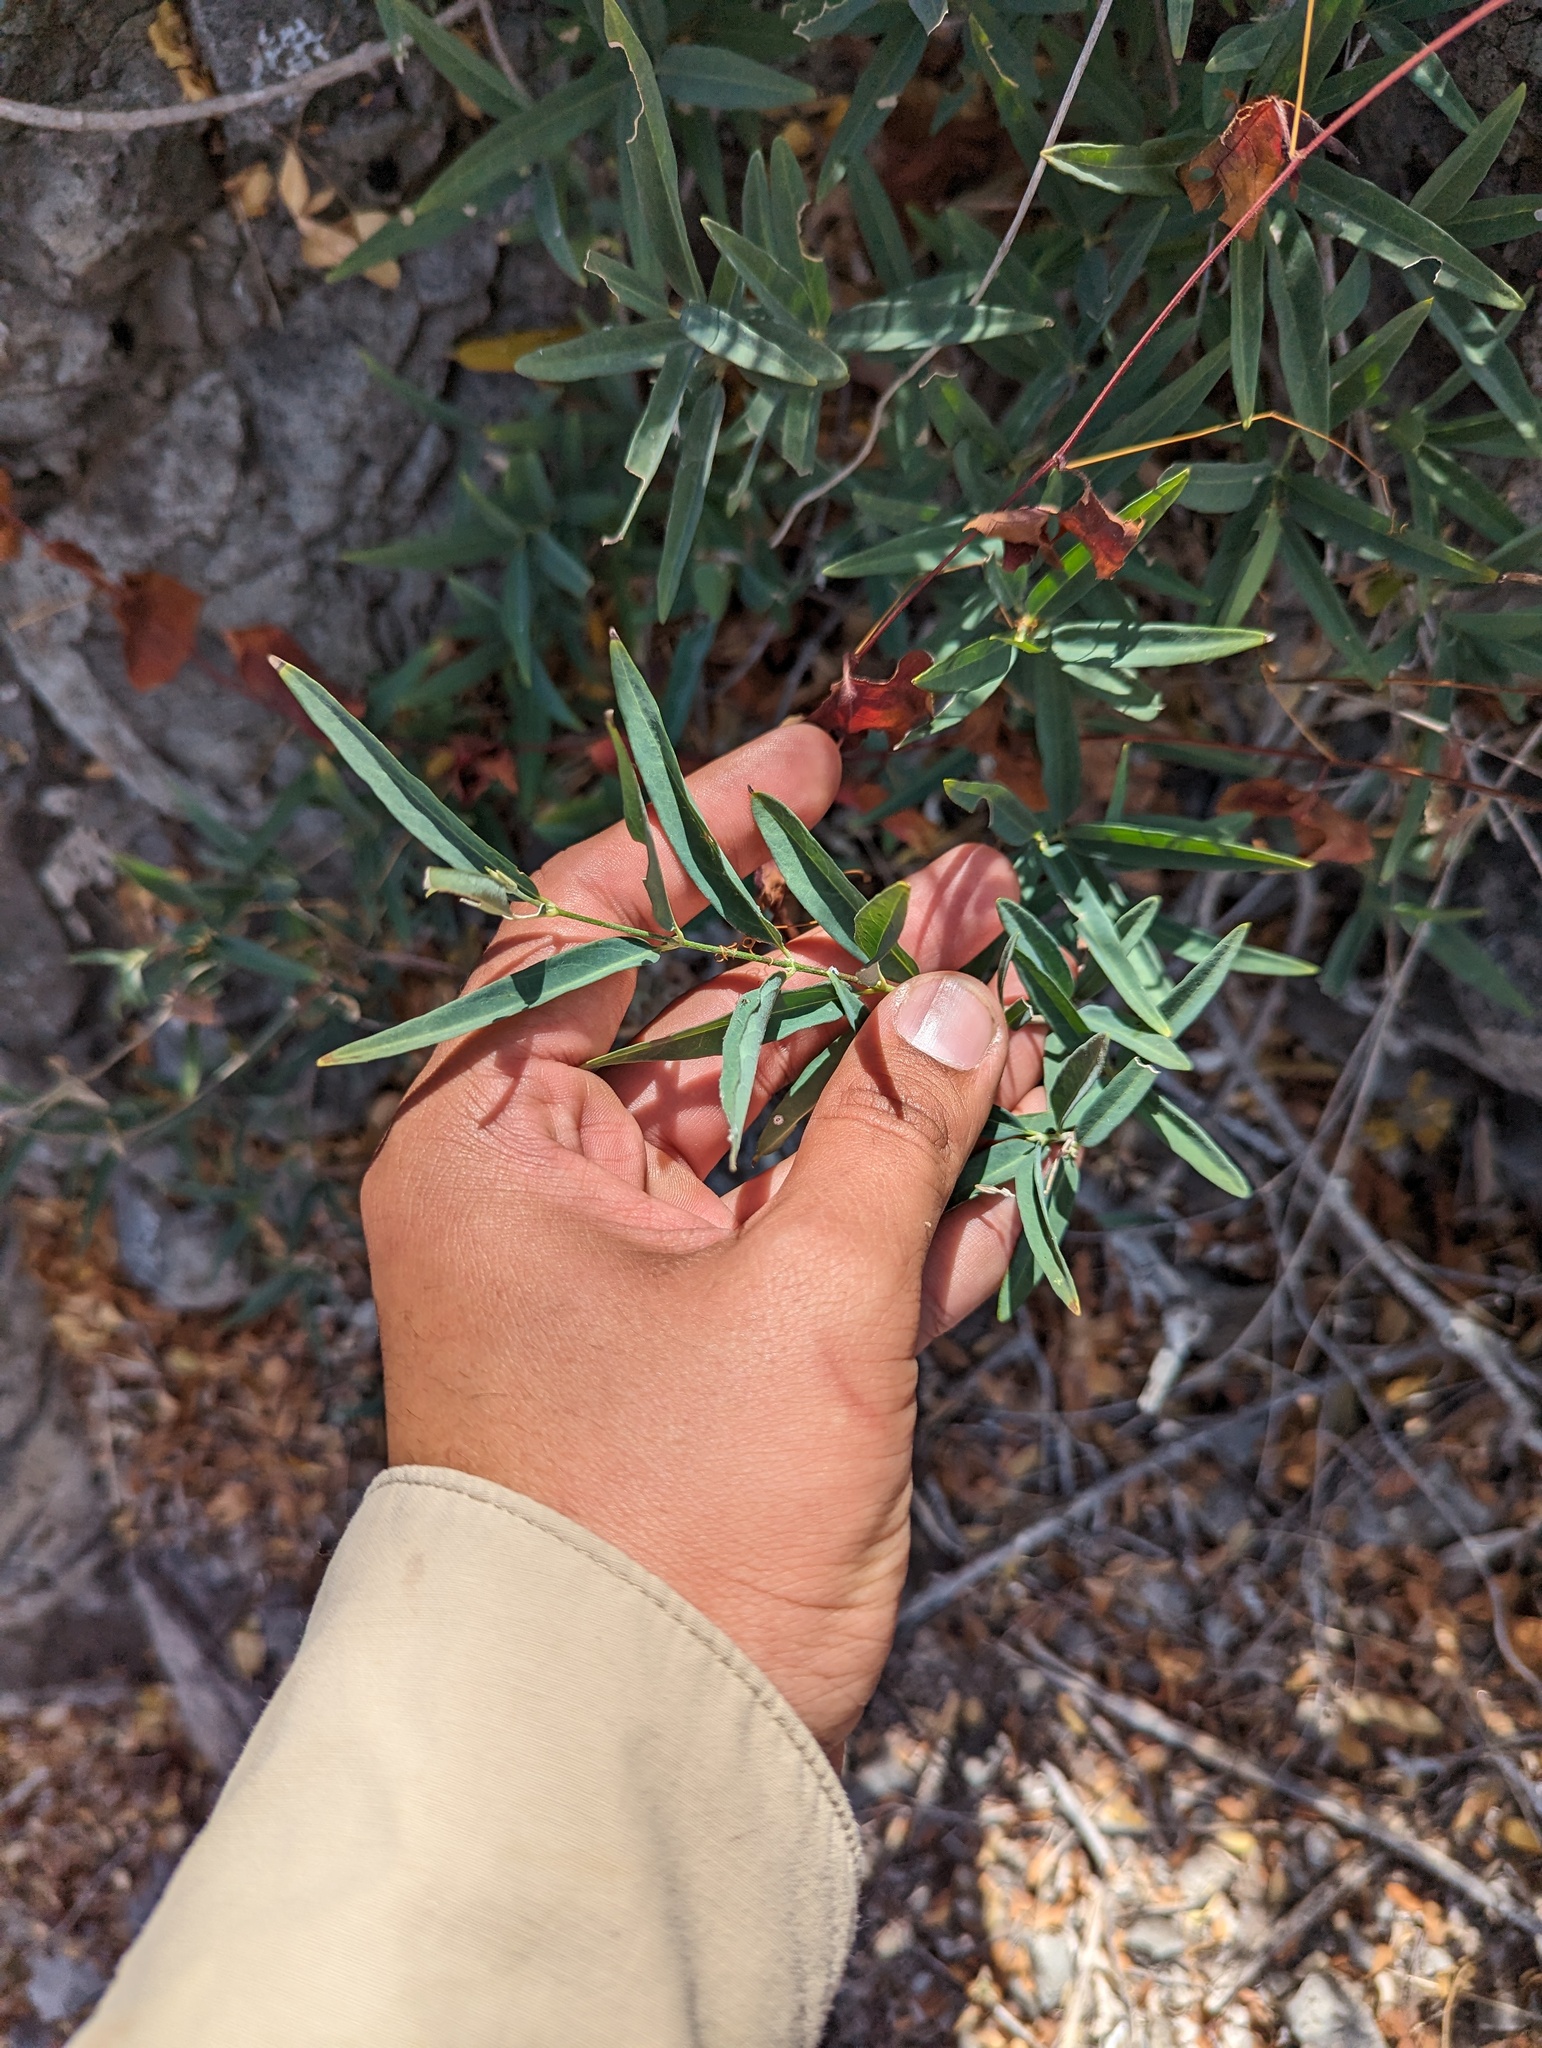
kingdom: Plantae
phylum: Tracheophyta
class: Magnoliopsida
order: Malpighiales
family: Malpighiaceae
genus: Callaeum
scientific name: Callaeum macropterum
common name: Mexican butterfly-vine
